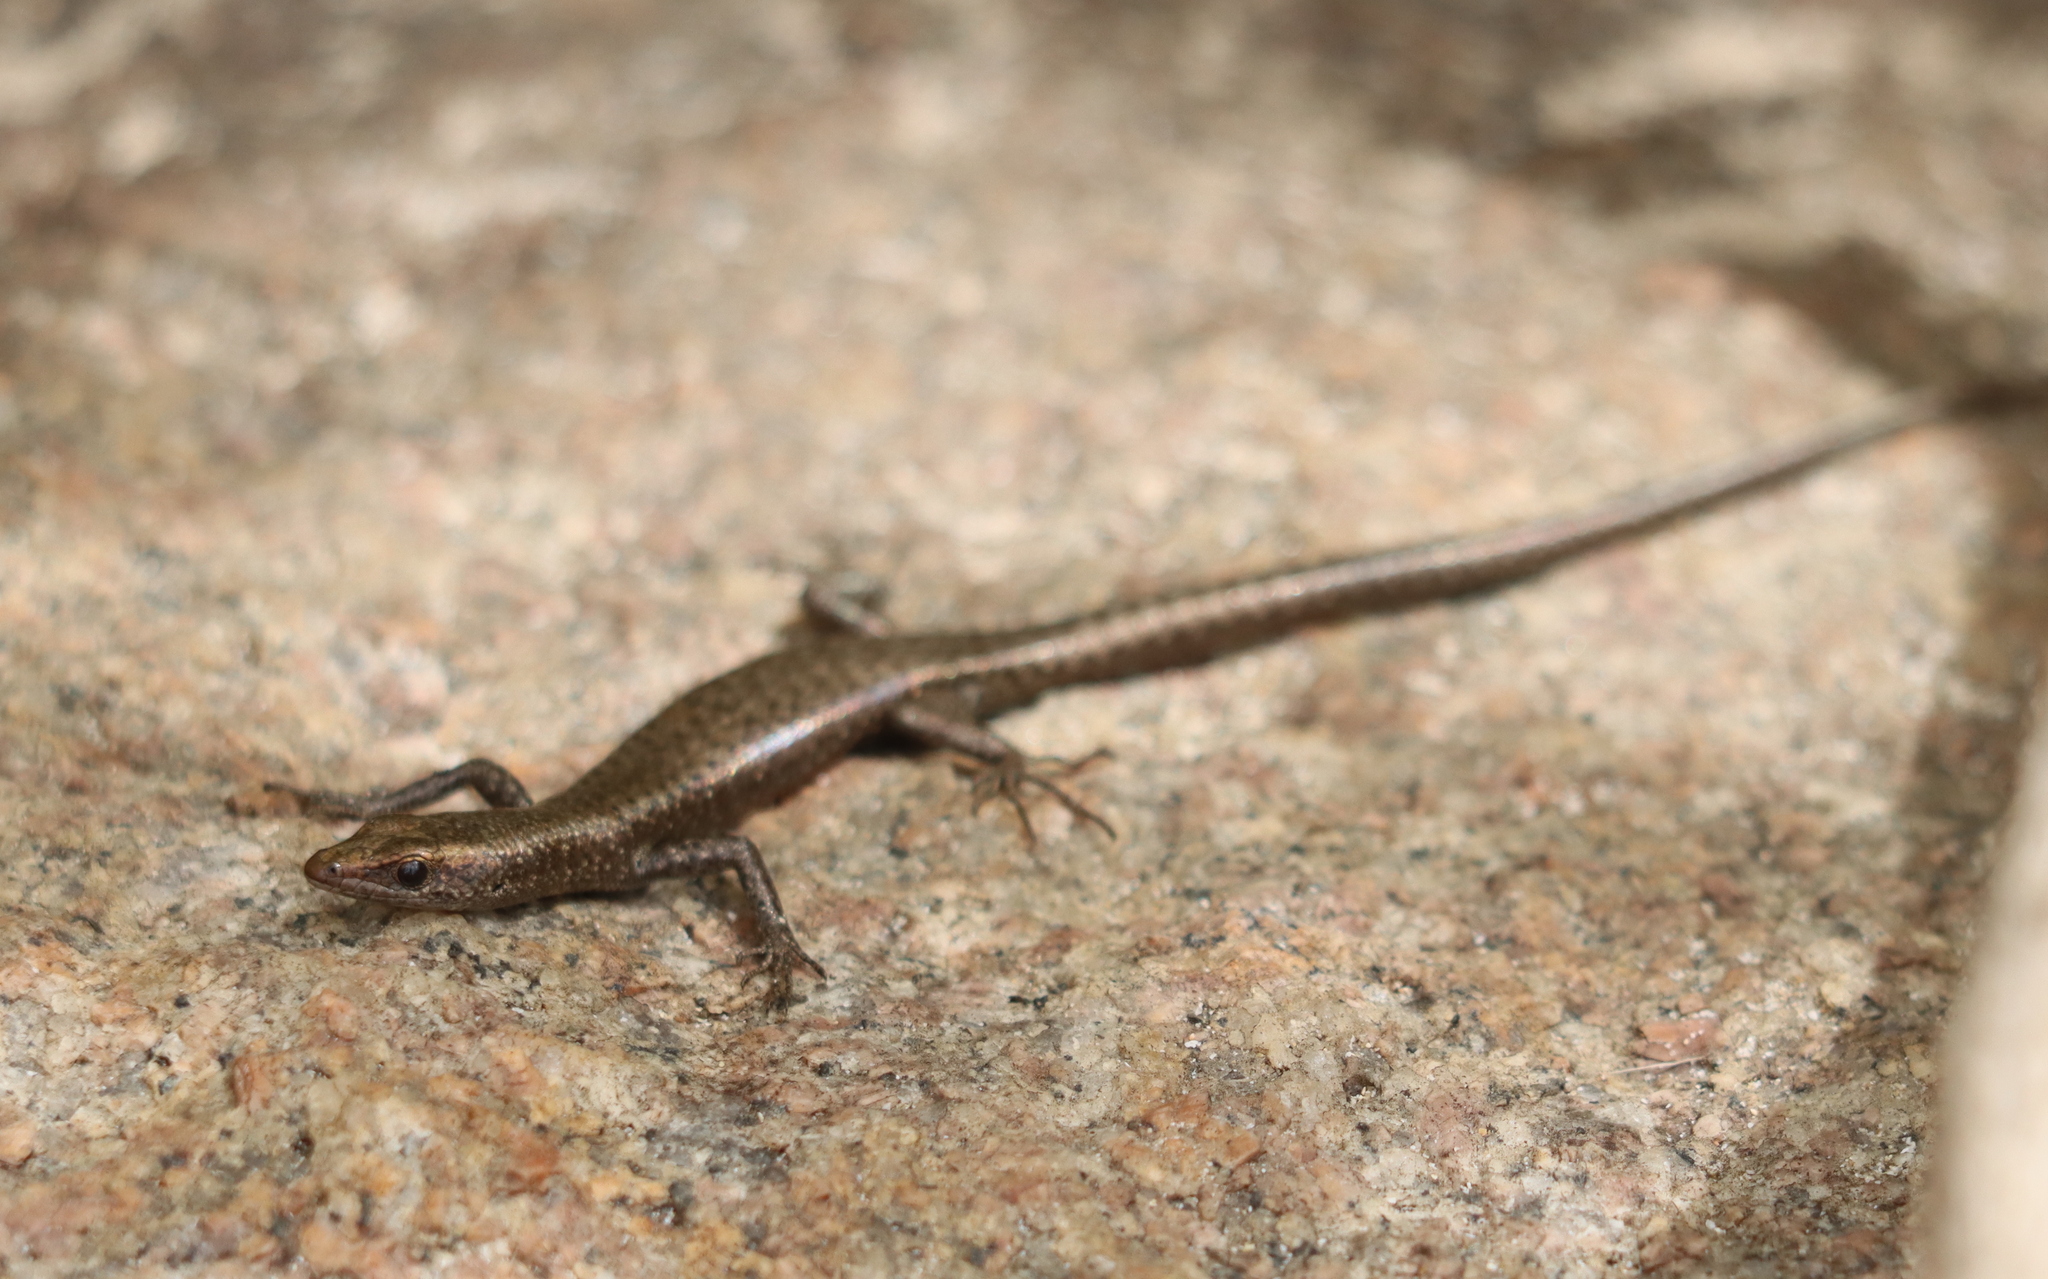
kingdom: Animalia
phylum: Chordata
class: Squamata
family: Scincidae
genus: Cryptoblepharus
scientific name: Cryptoblepharus litoralis
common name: Coastal snake-eyed skink
